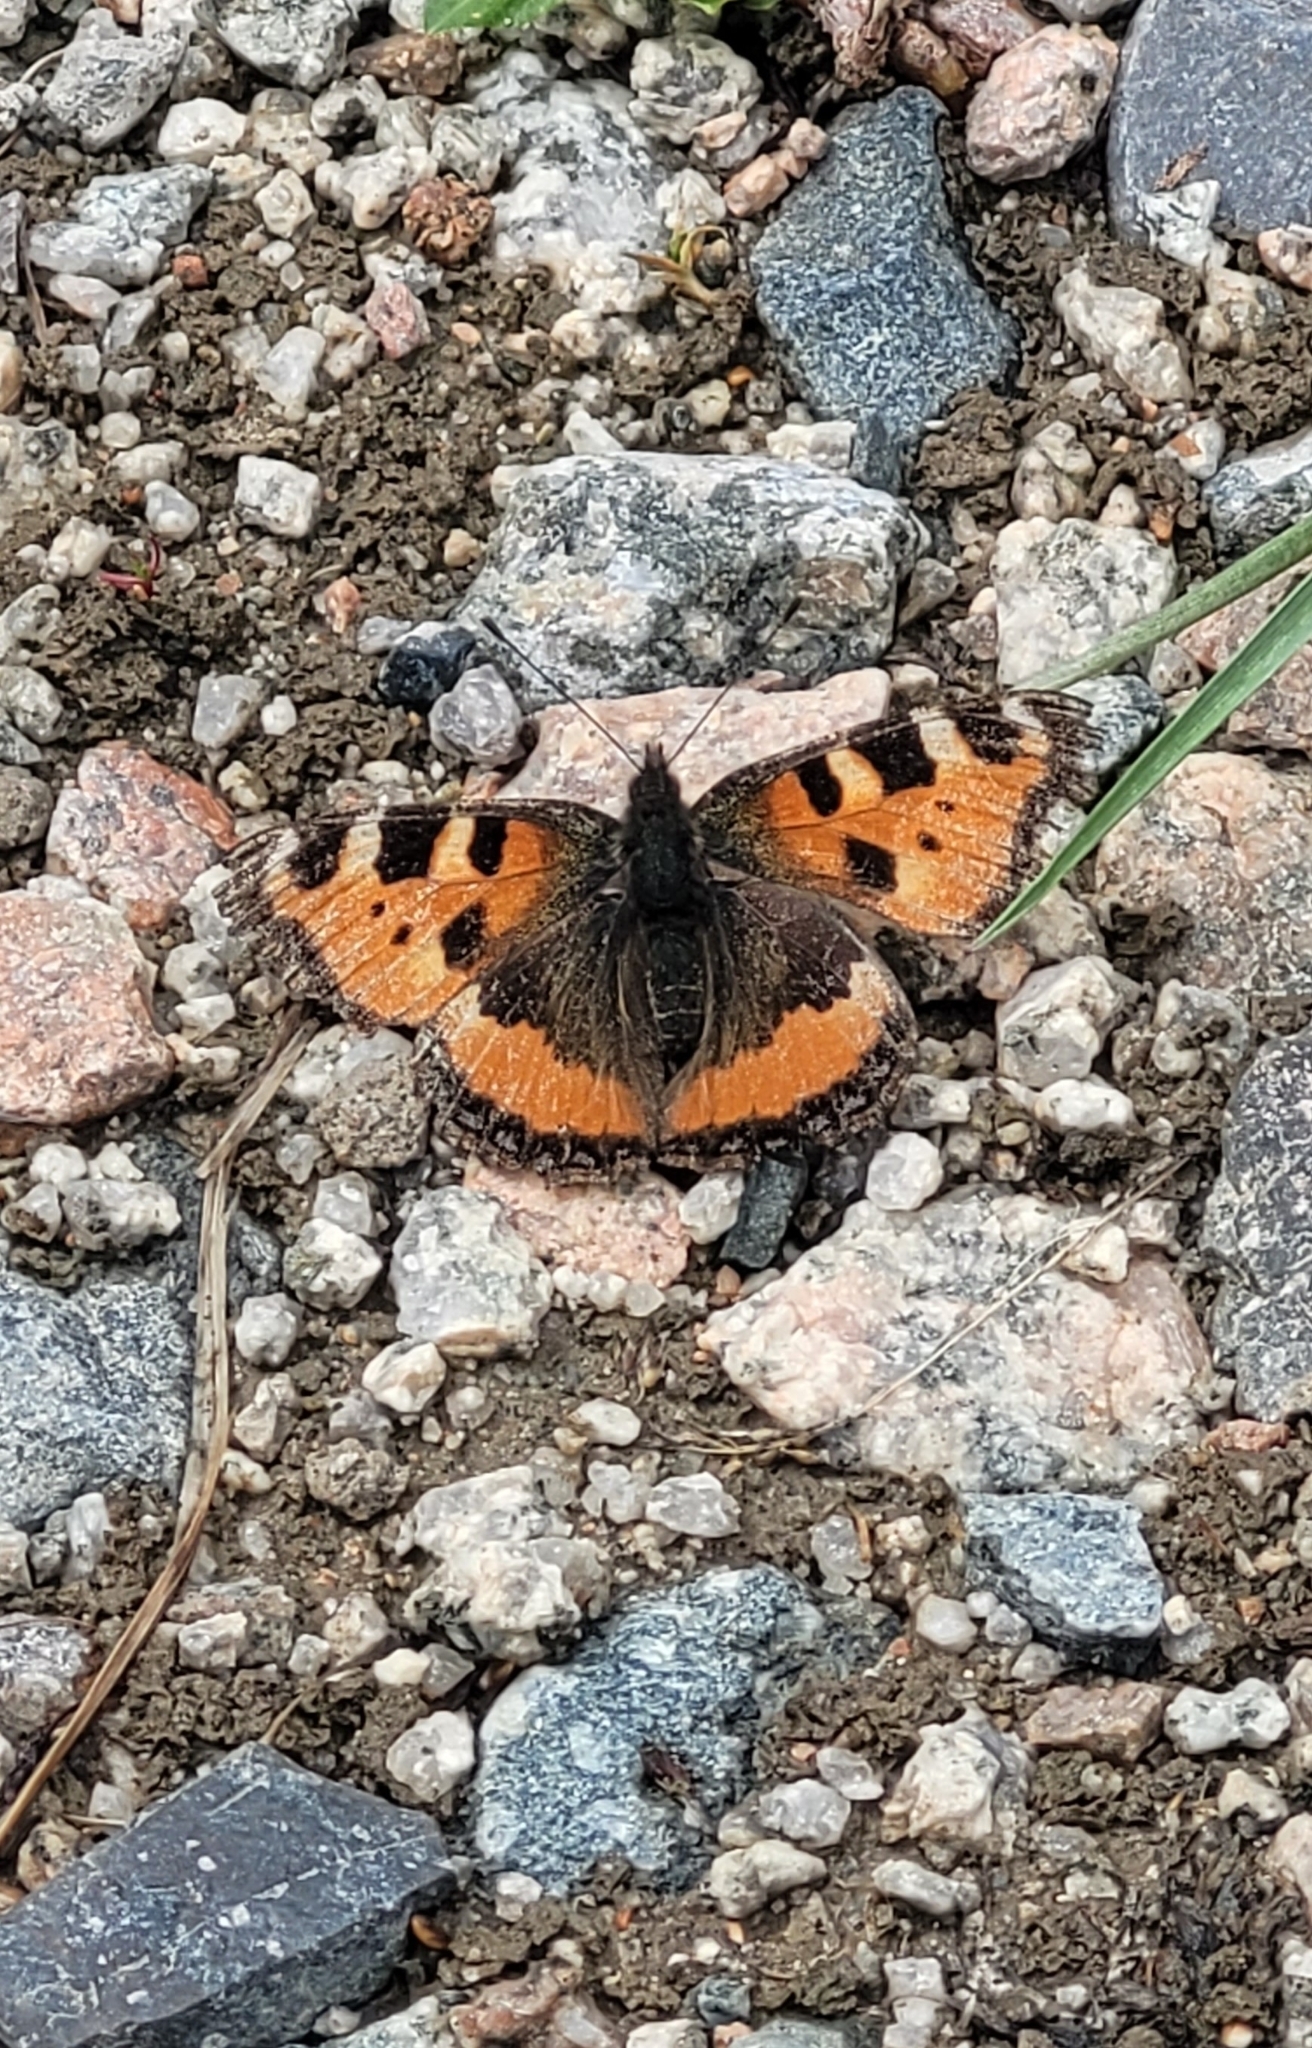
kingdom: Animalia
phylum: Arthropoda
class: Insecta
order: Lepidoptera
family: Nymphalidae
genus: Aglais
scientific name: Aglais urticae
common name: Small tortoiseshell
